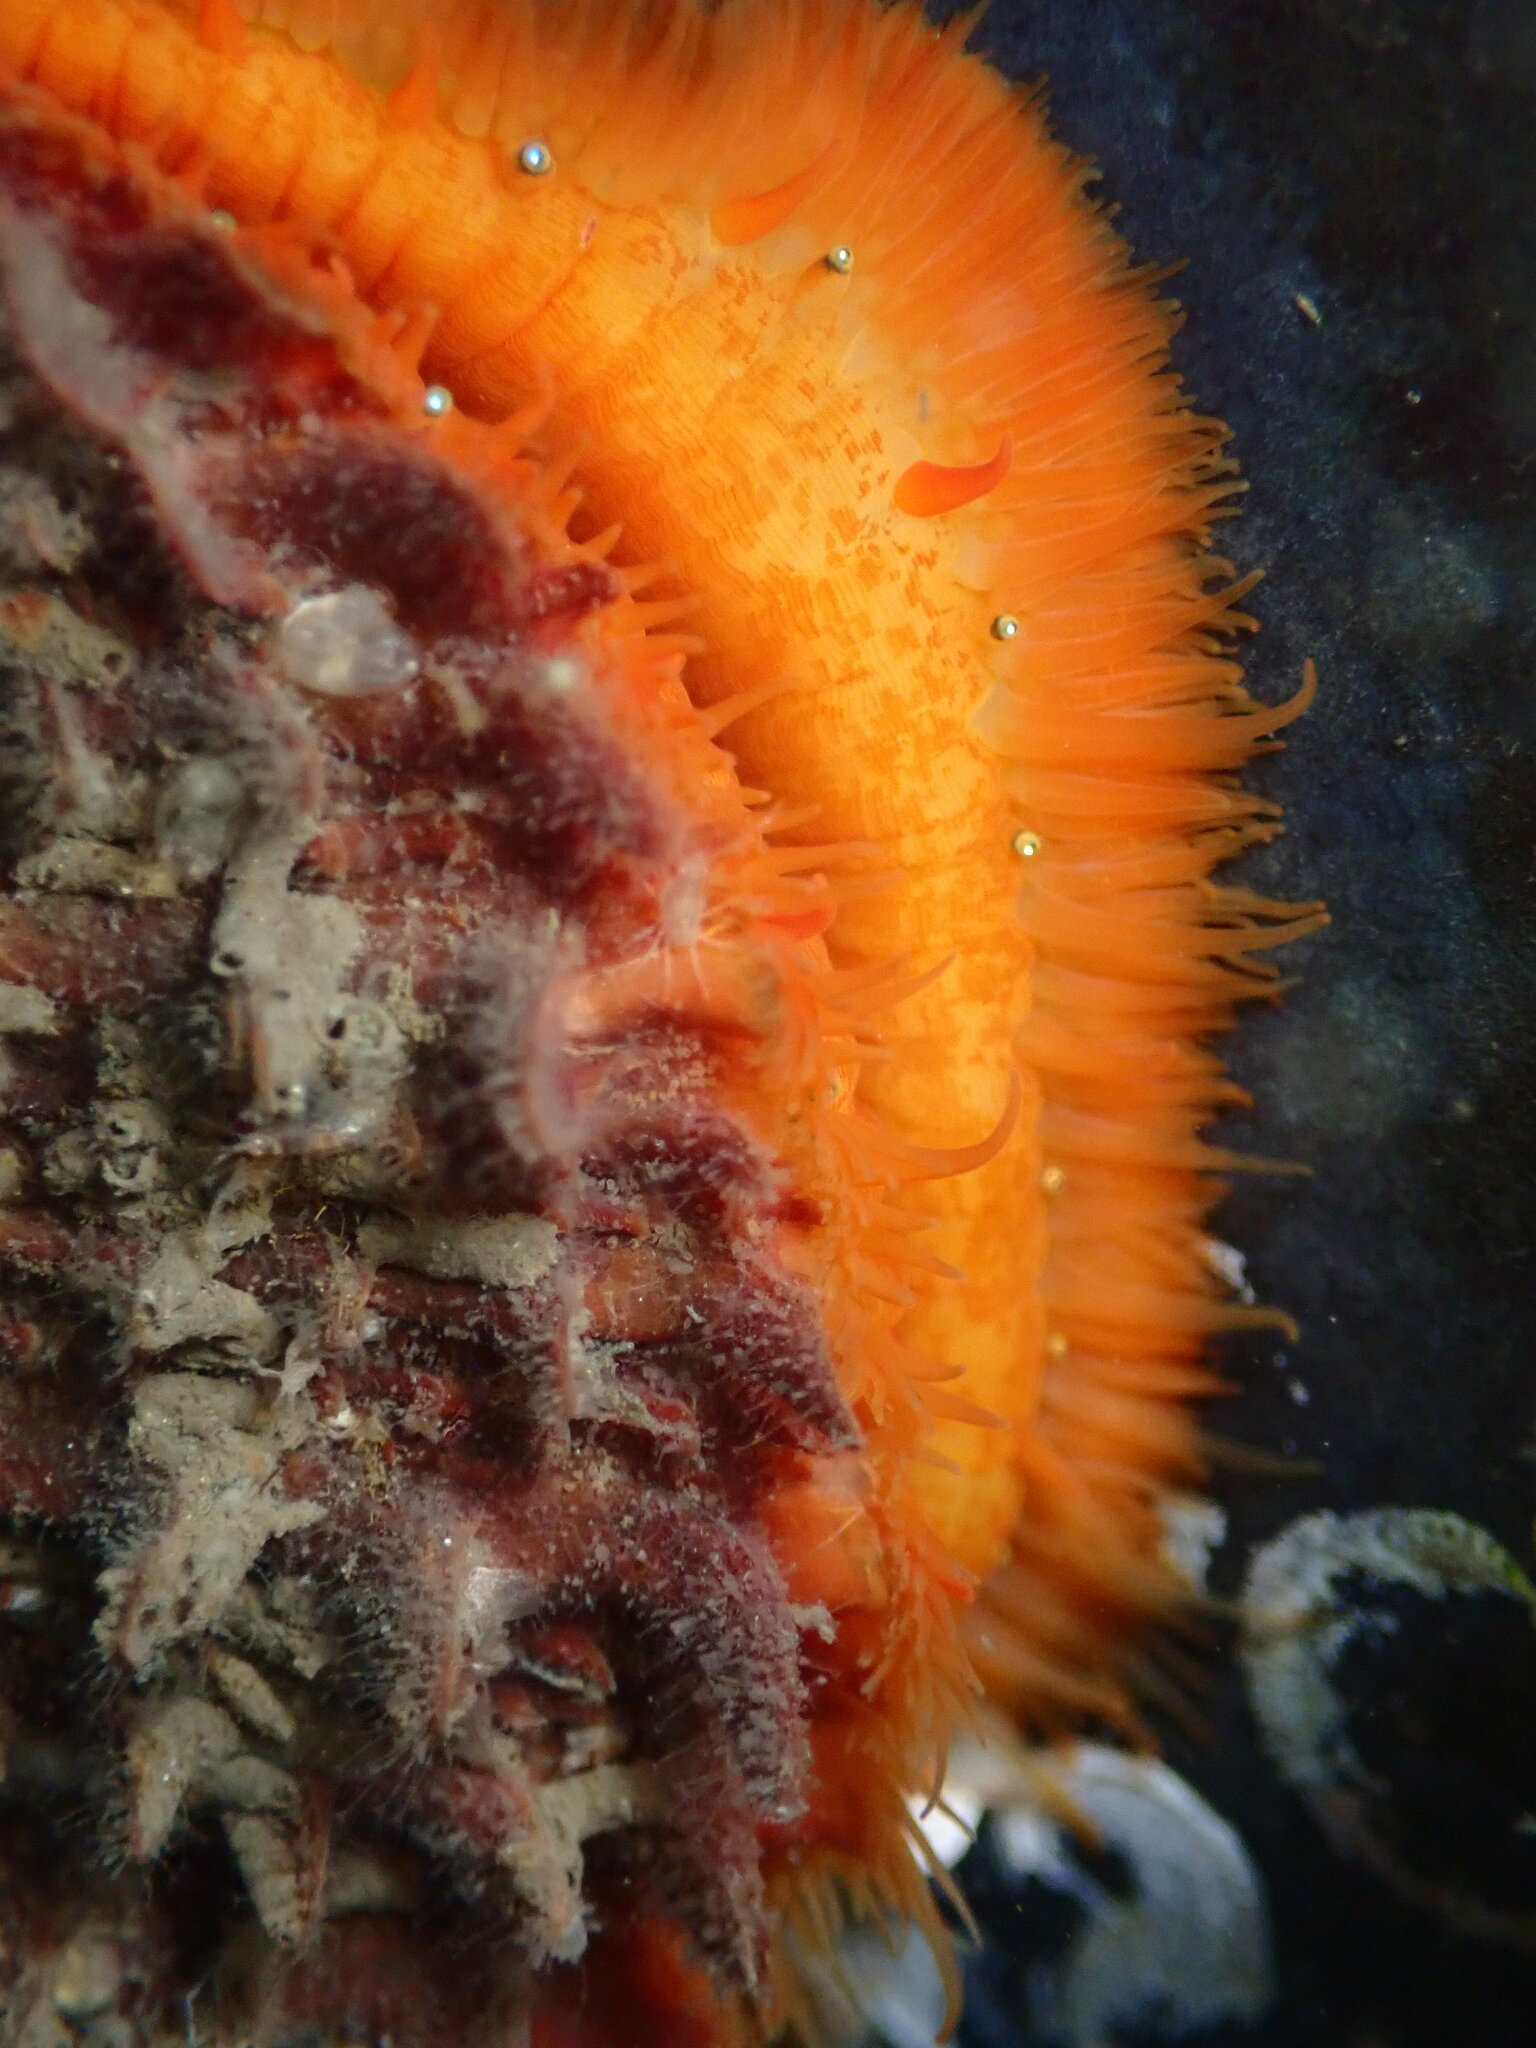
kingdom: Animalia
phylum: Mollusca
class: Bivalvia
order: Pectinida
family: Pectinidae
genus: Crassadoma
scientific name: Crassadoma gigantea
